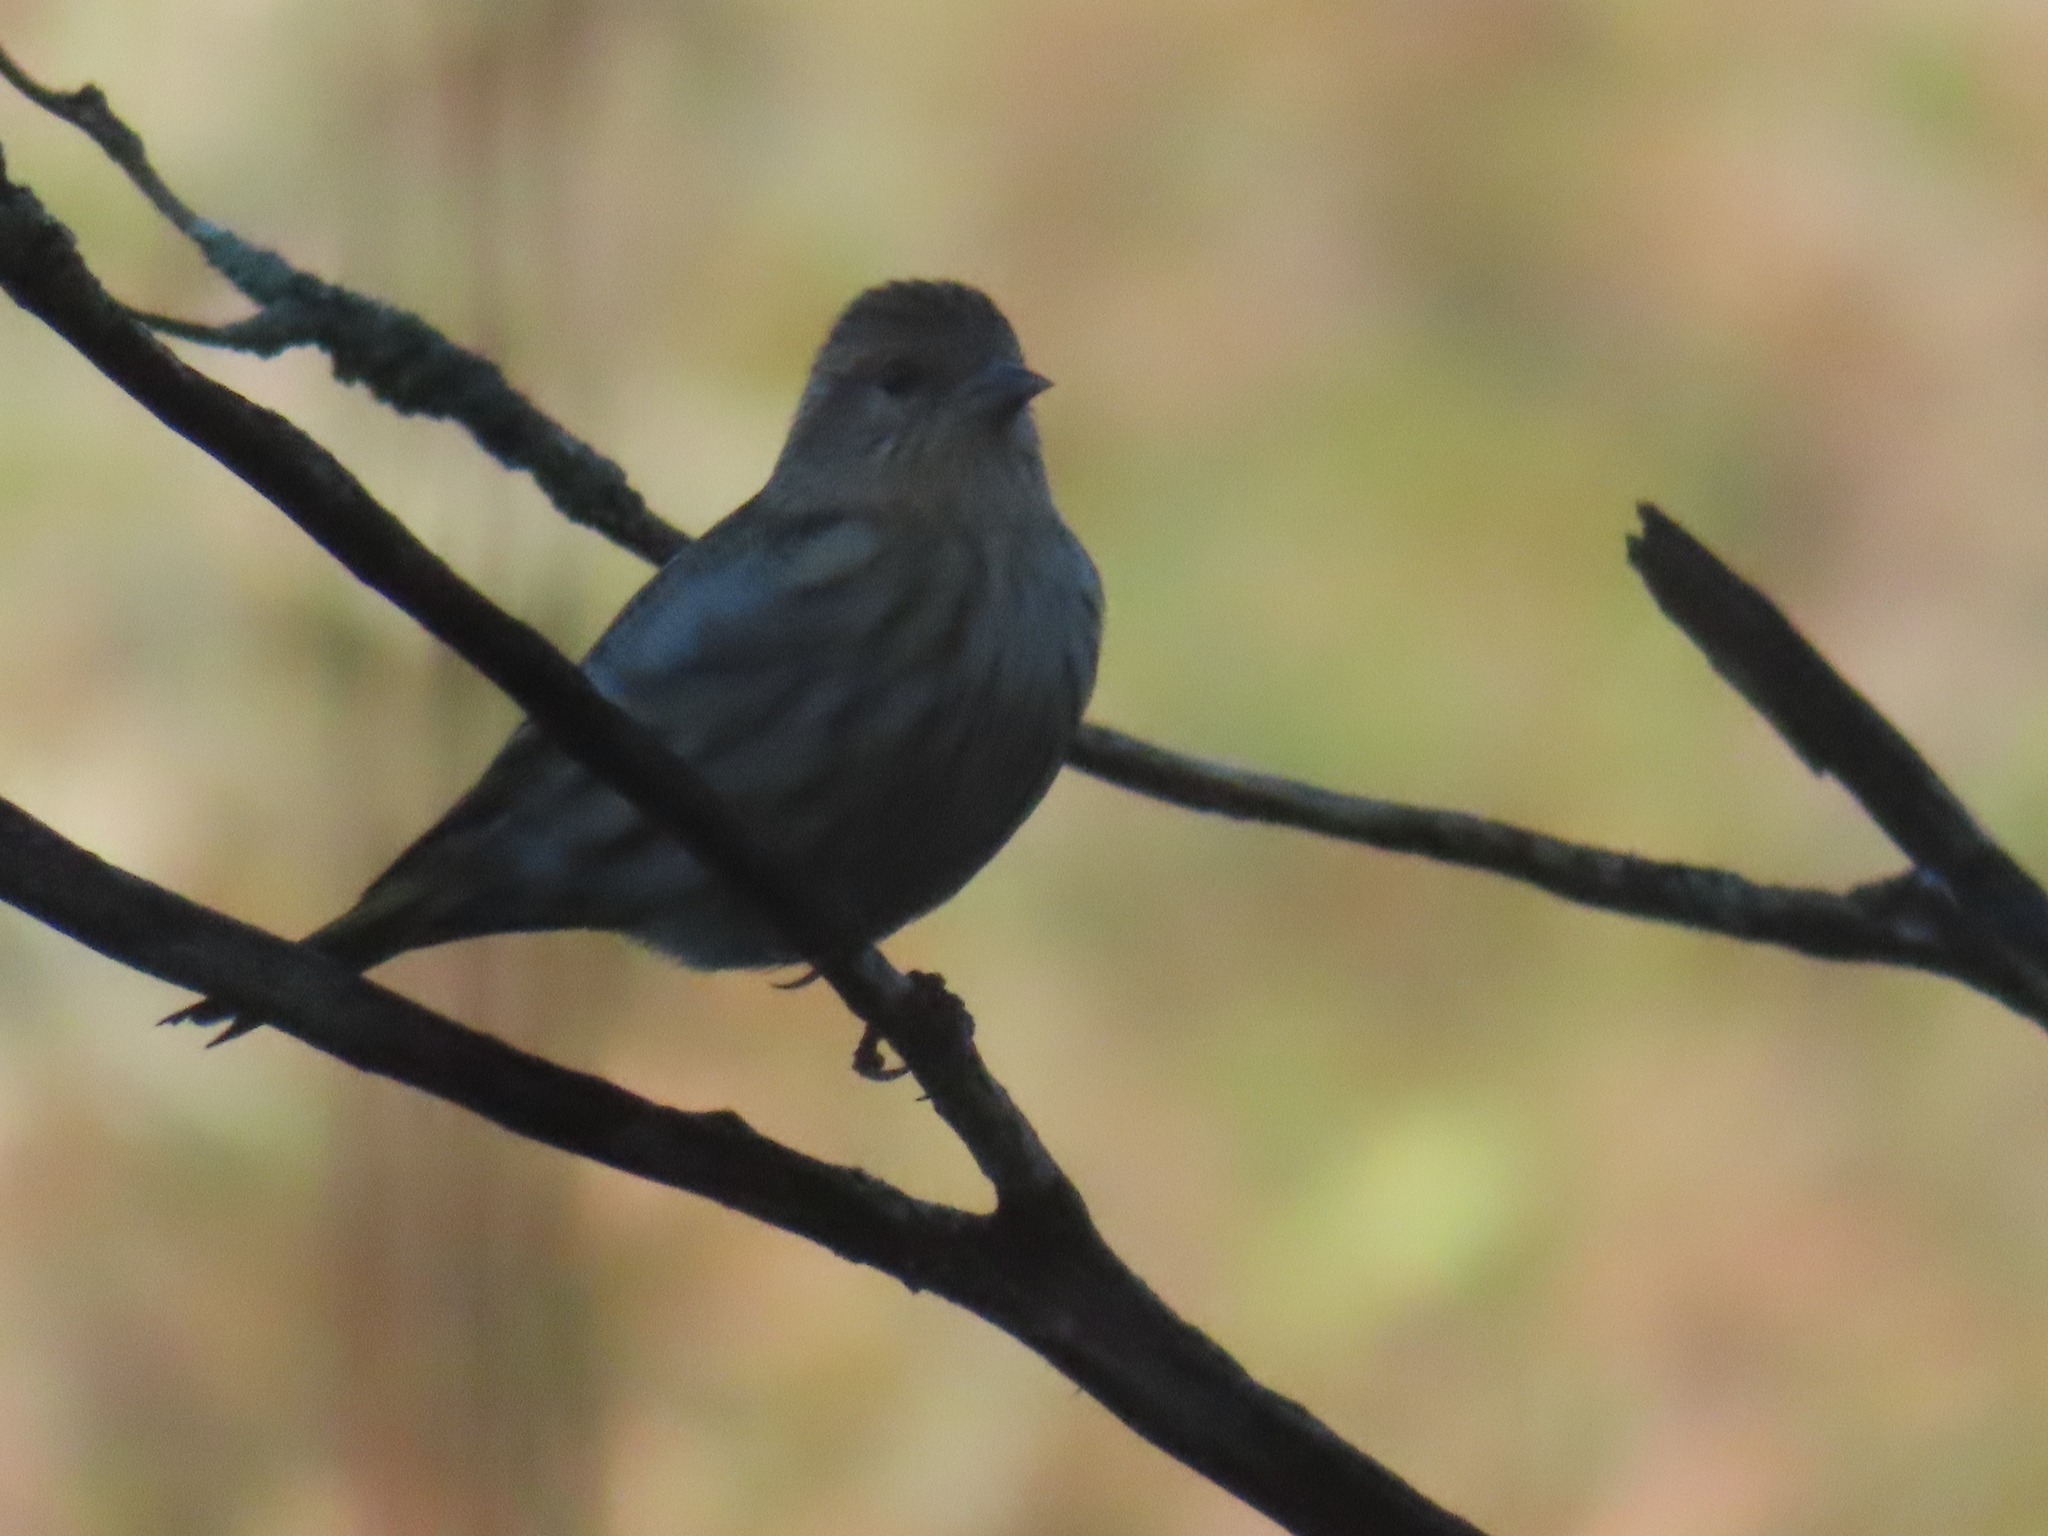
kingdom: Animalia
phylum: Chordata
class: Aves
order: Passeriformes
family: Fringillidae
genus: Spinus
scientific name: Spinus pinus
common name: Pine siskin
